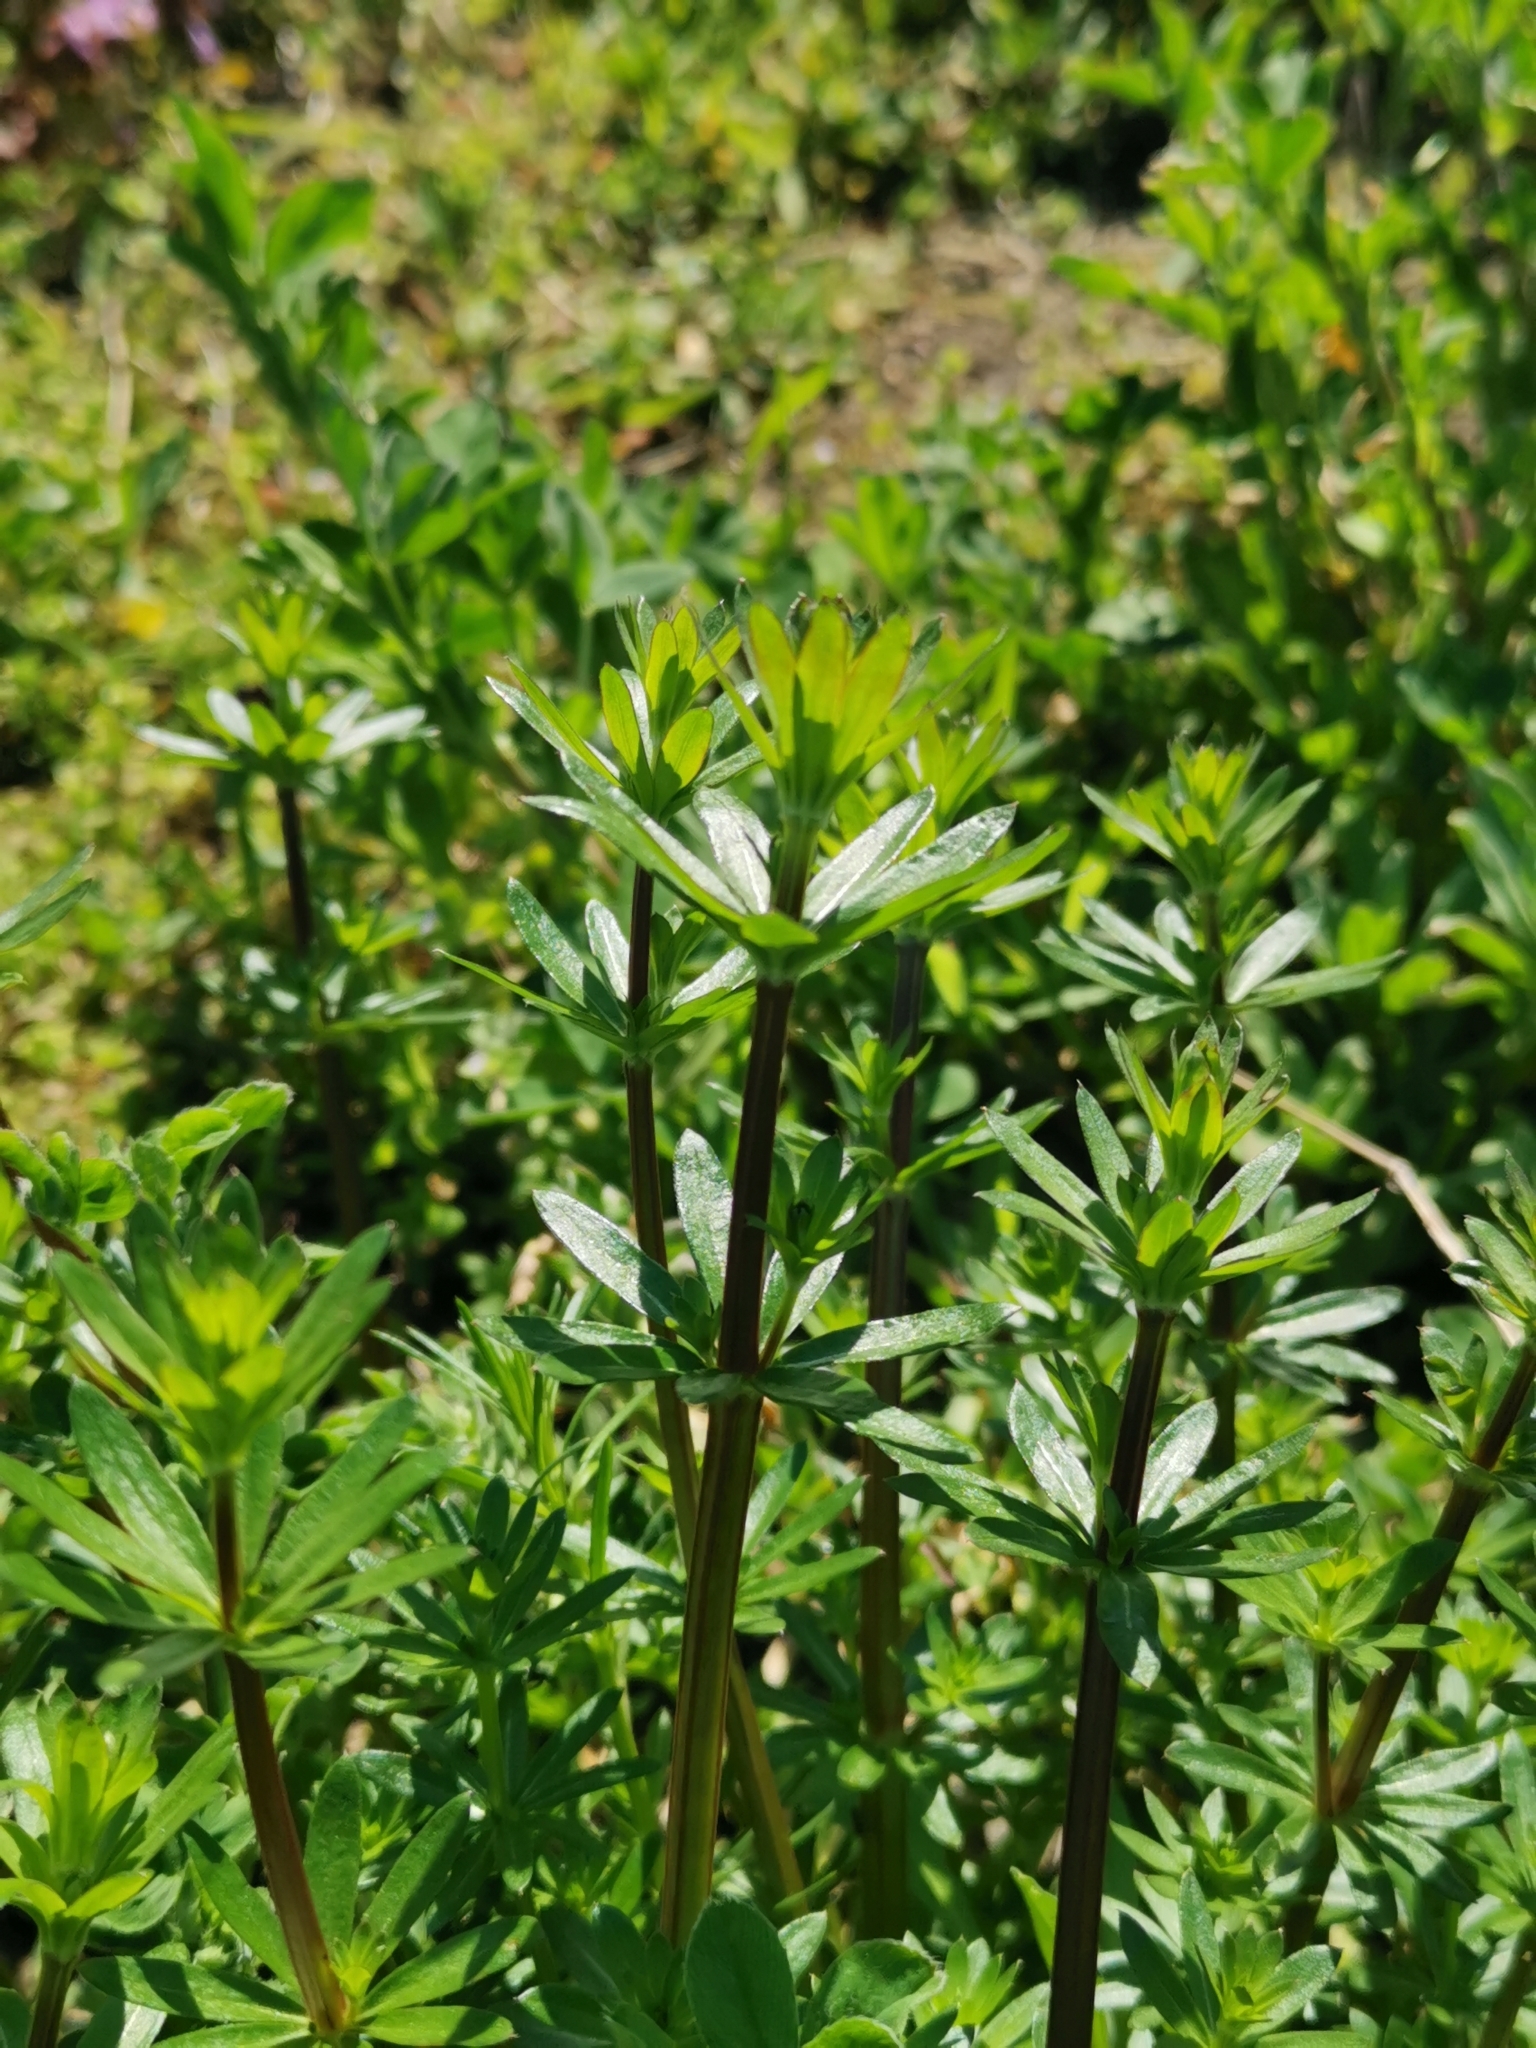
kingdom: Plantae
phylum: Tracheophyta
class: Magnoliopsida
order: Gentianales
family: Rubiaceae
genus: Galium
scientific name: Galium mollugo
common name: Hedge bedstraw
